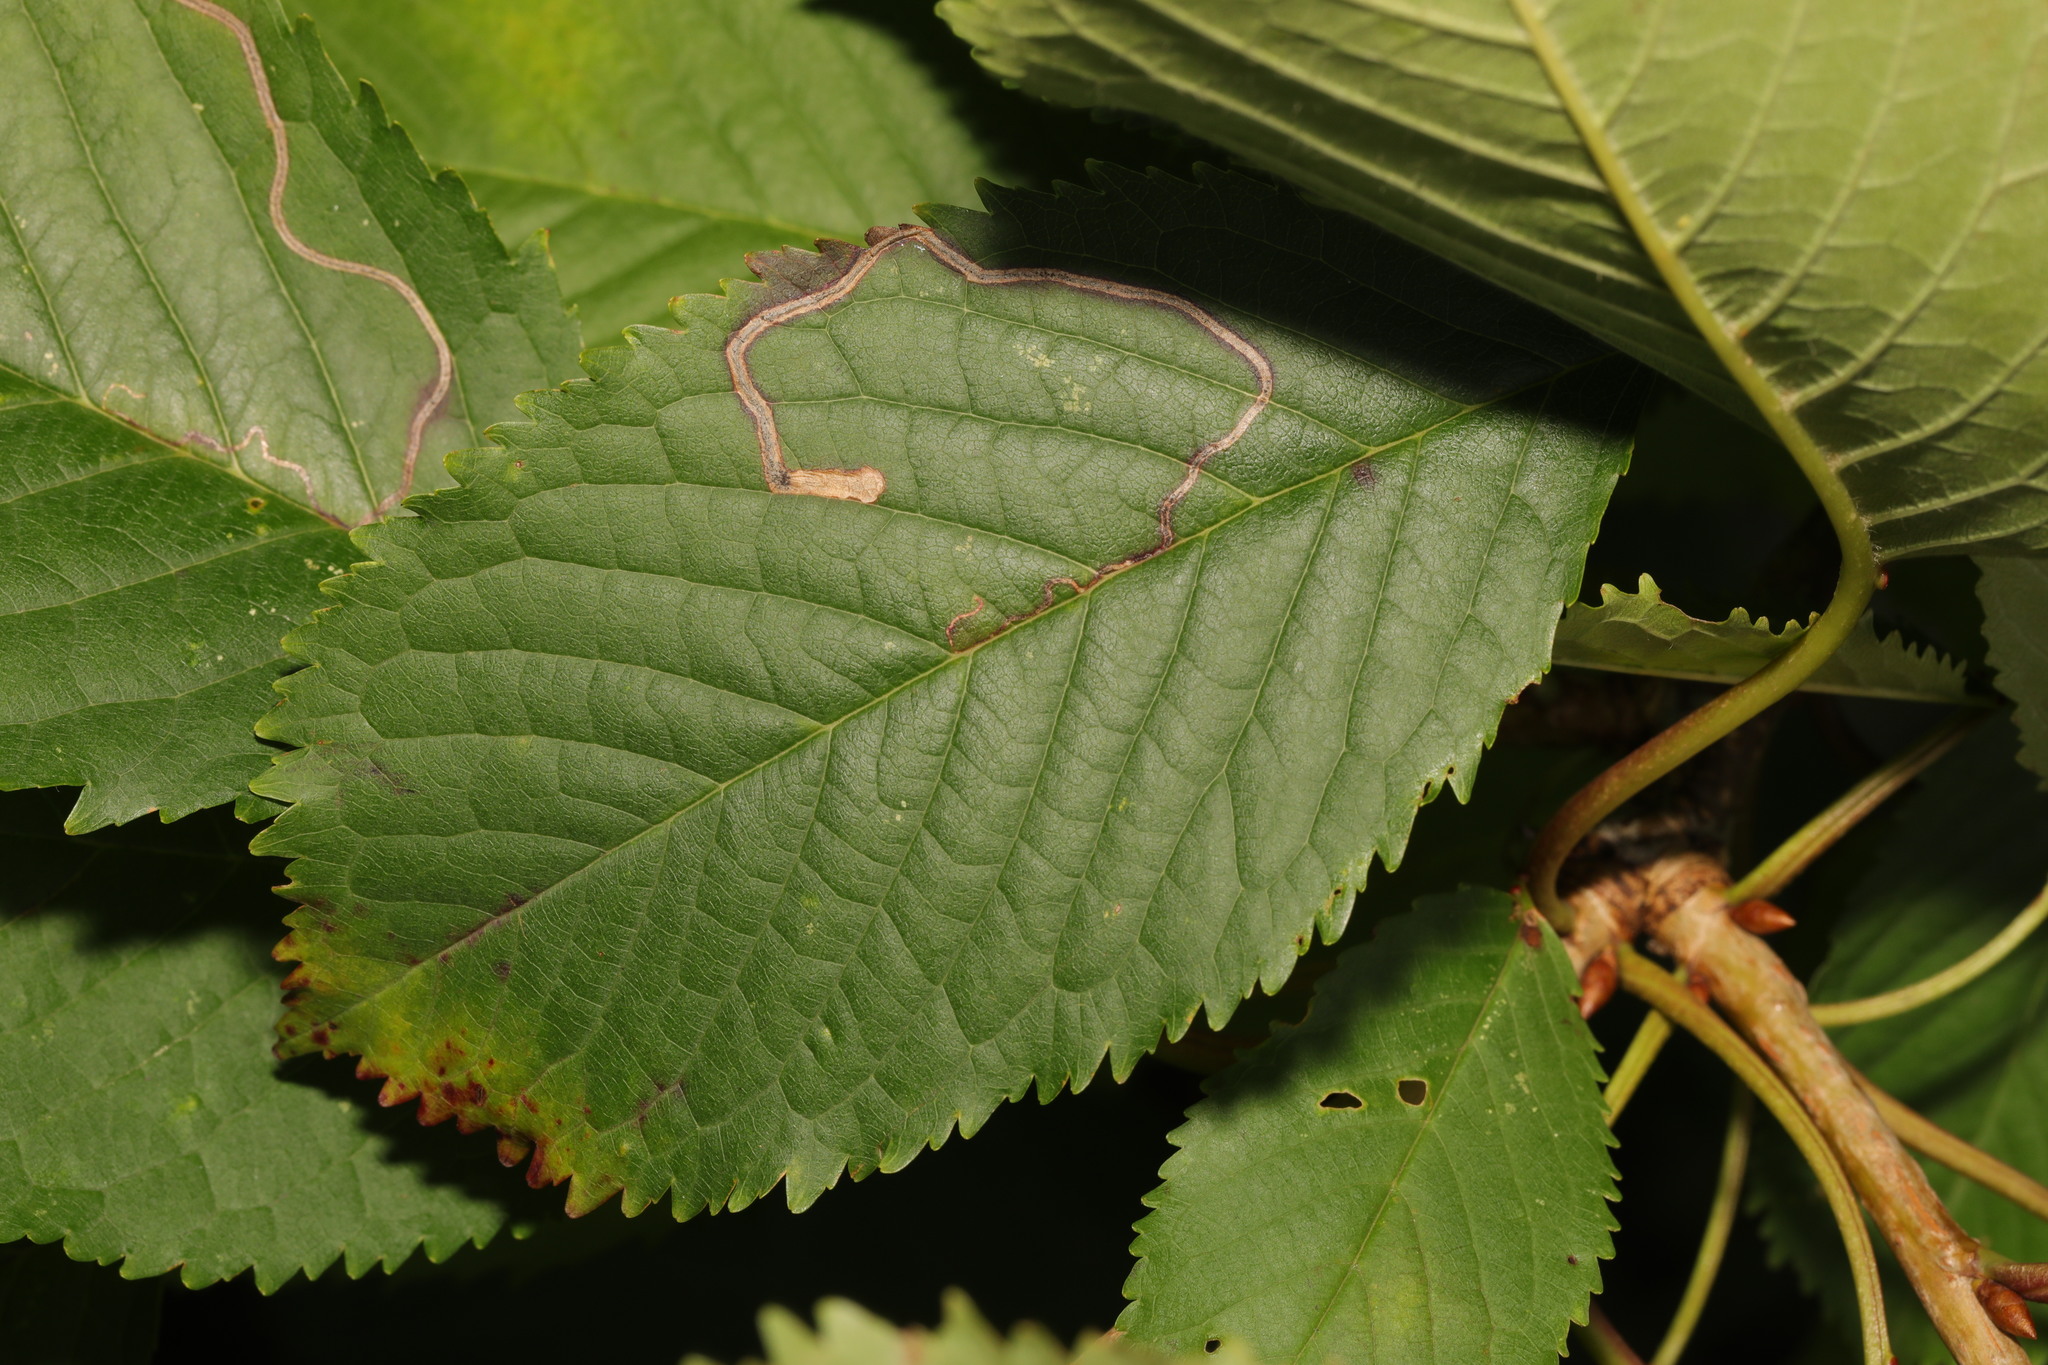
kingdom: Plantae
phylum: Tracheophyta
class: Magnoliopsida
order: Rosales
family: Rosaceae
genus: Prunus
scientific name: Prunus avium
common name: Sweet cherry
